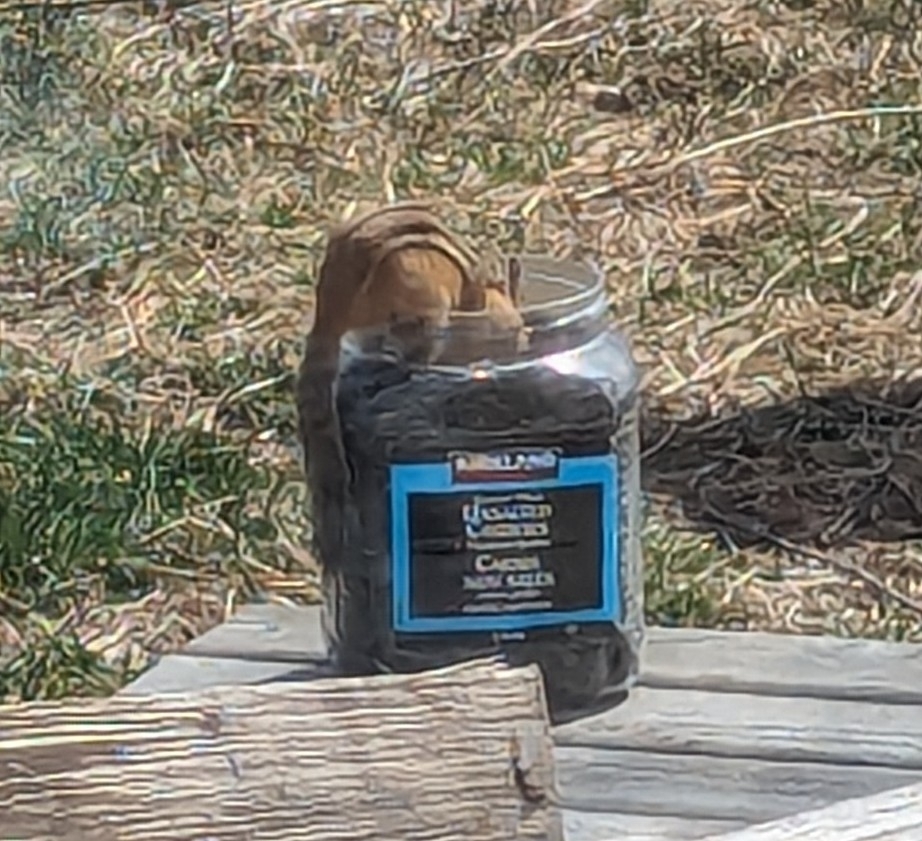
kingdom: Animalia
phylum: Chordata
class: Mammalia
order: Rodentia
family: Sciuridae
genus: Tamias
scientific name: Tamias striatus
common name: Eastern chipmunk
